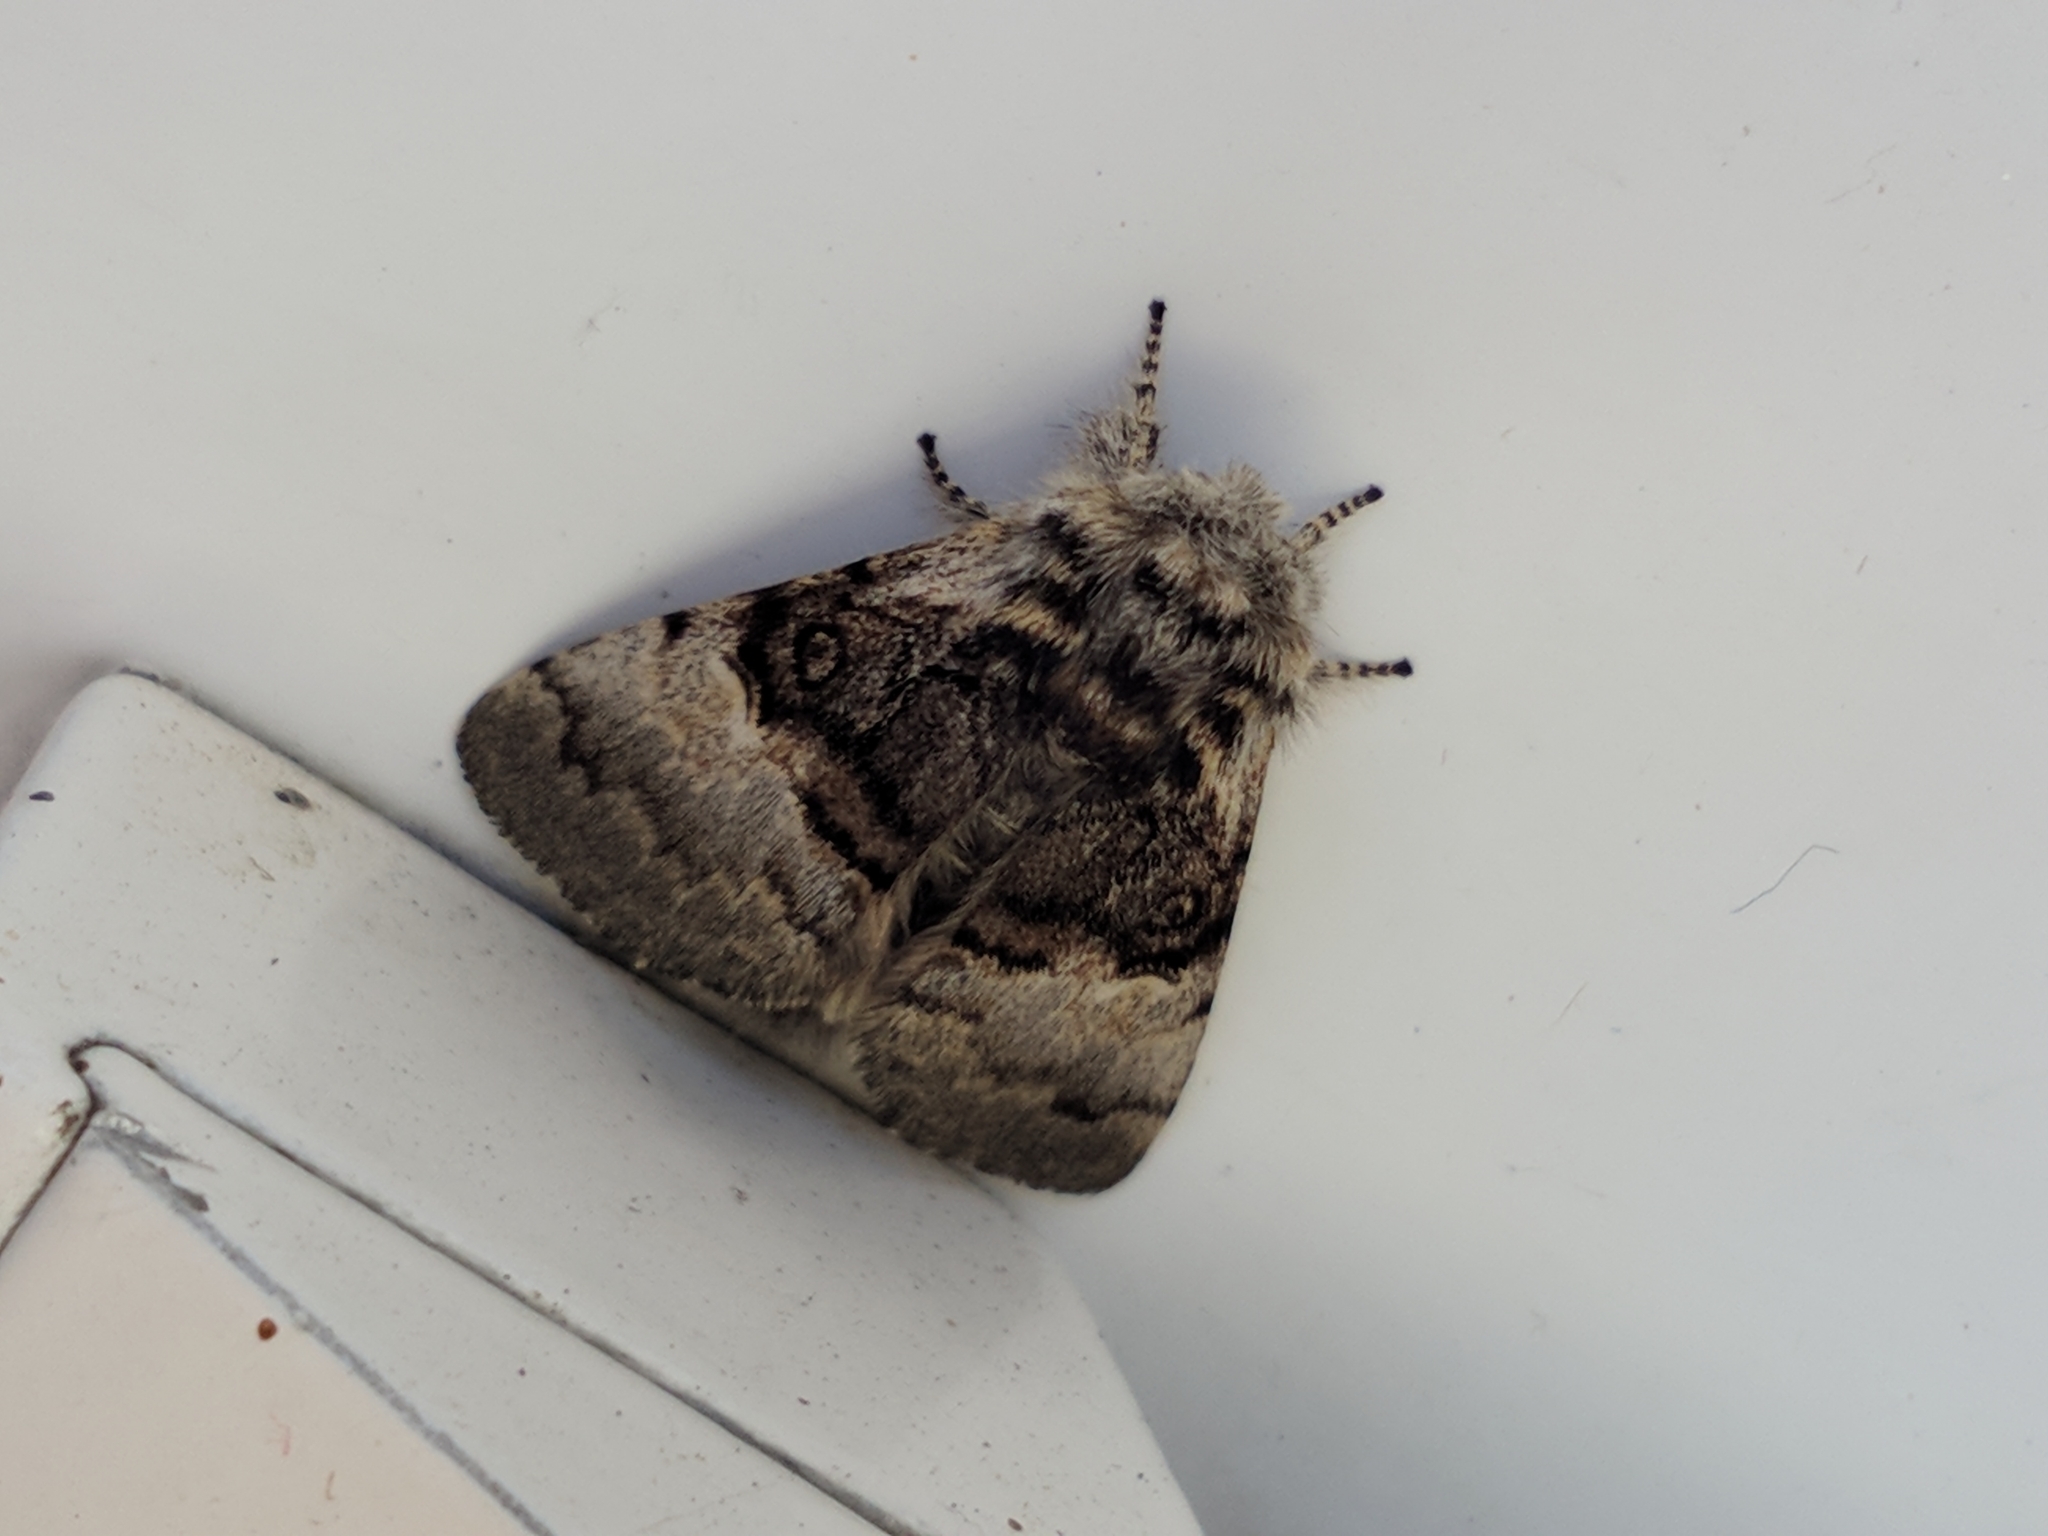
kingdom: Animalia
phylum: Arthropoda
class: Insecta
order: Lepidoptera
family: Noctuidae
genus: Colocasia
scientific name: Colocasia coryli
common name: Nut-tree tussock
